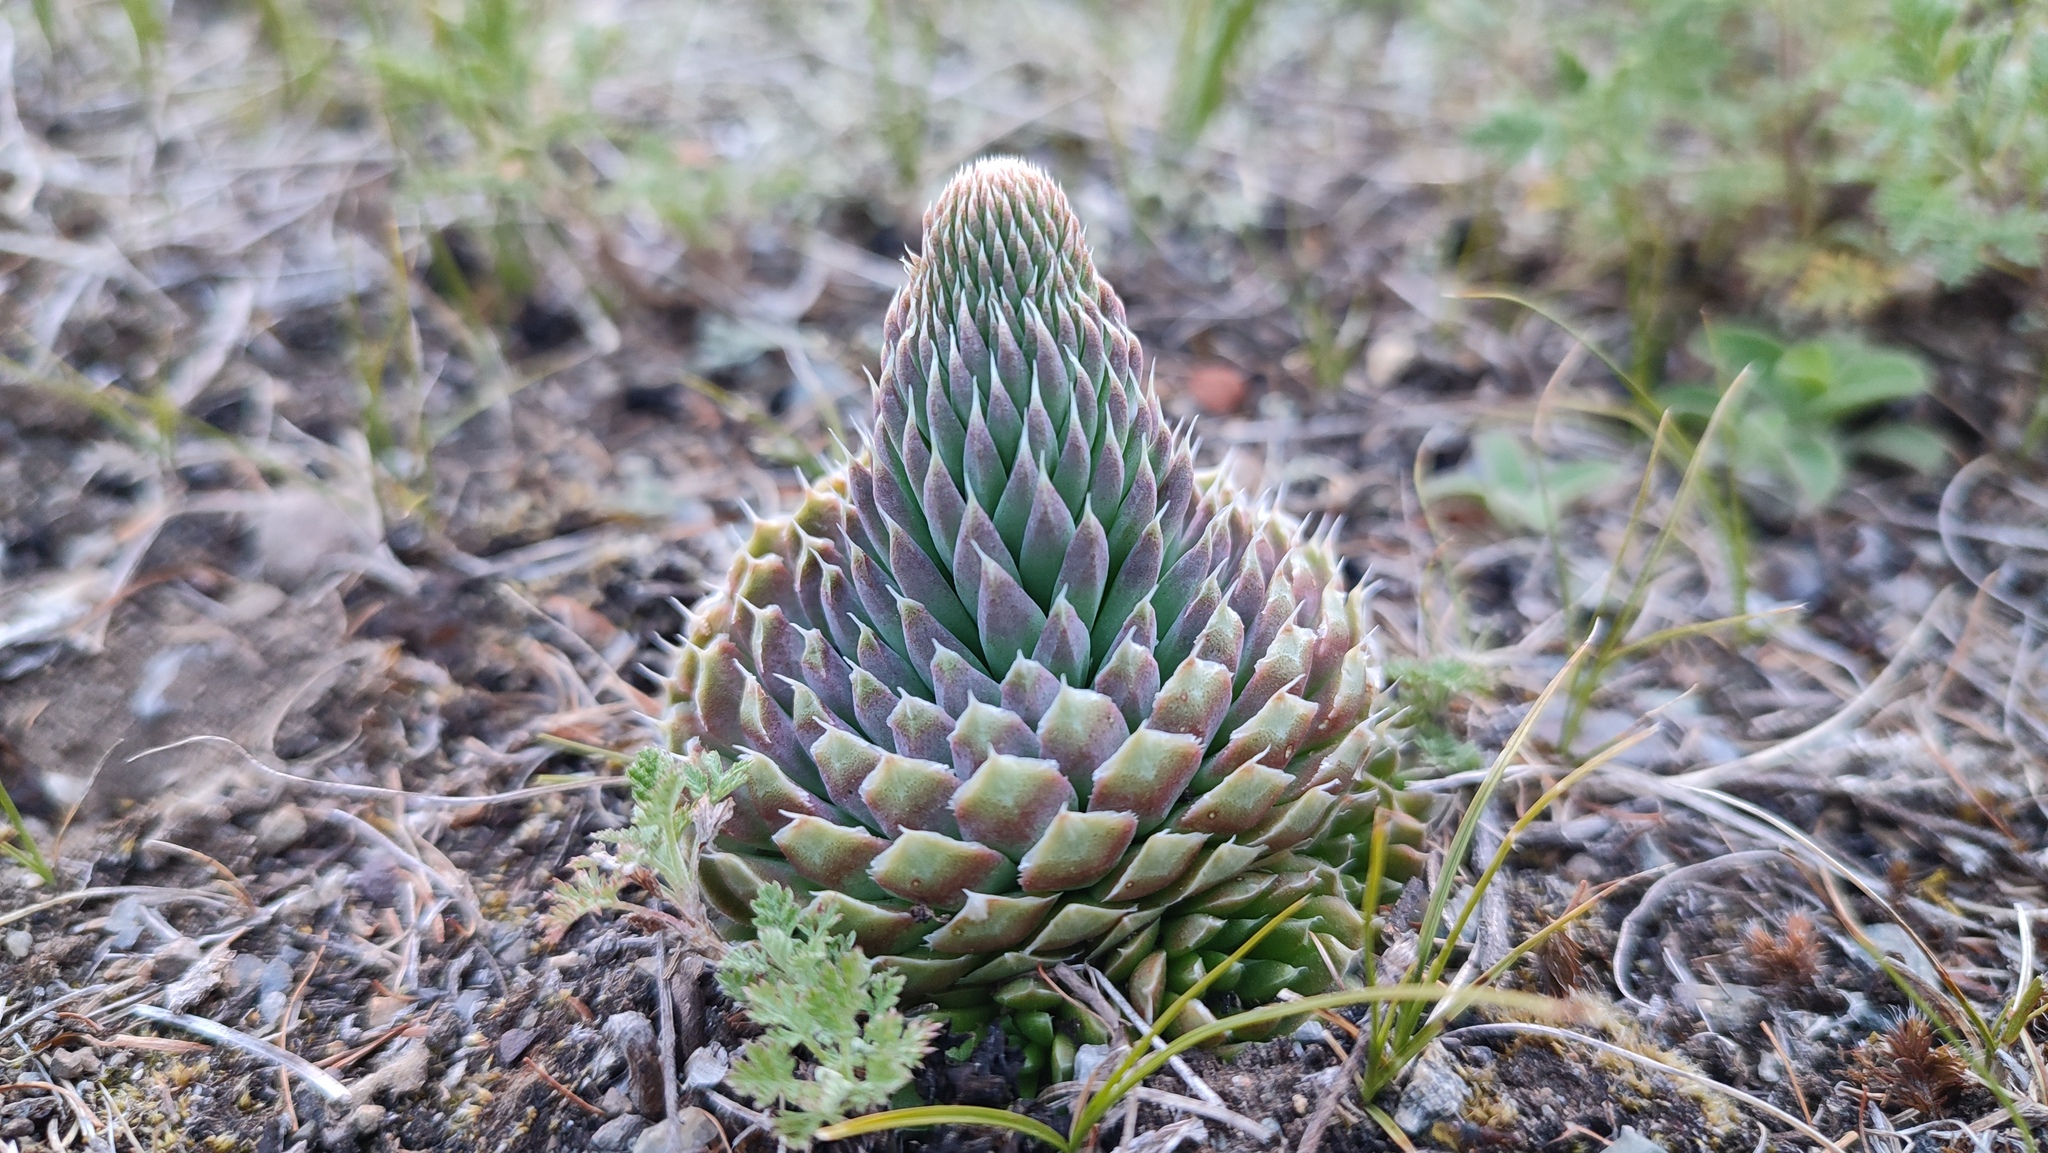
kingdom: Plantae
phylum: Tracheophyta
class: Magnoliopsida
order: Saxifragales
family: Crassulaceae
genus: Orostachys
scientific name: Orostachys spinosa
